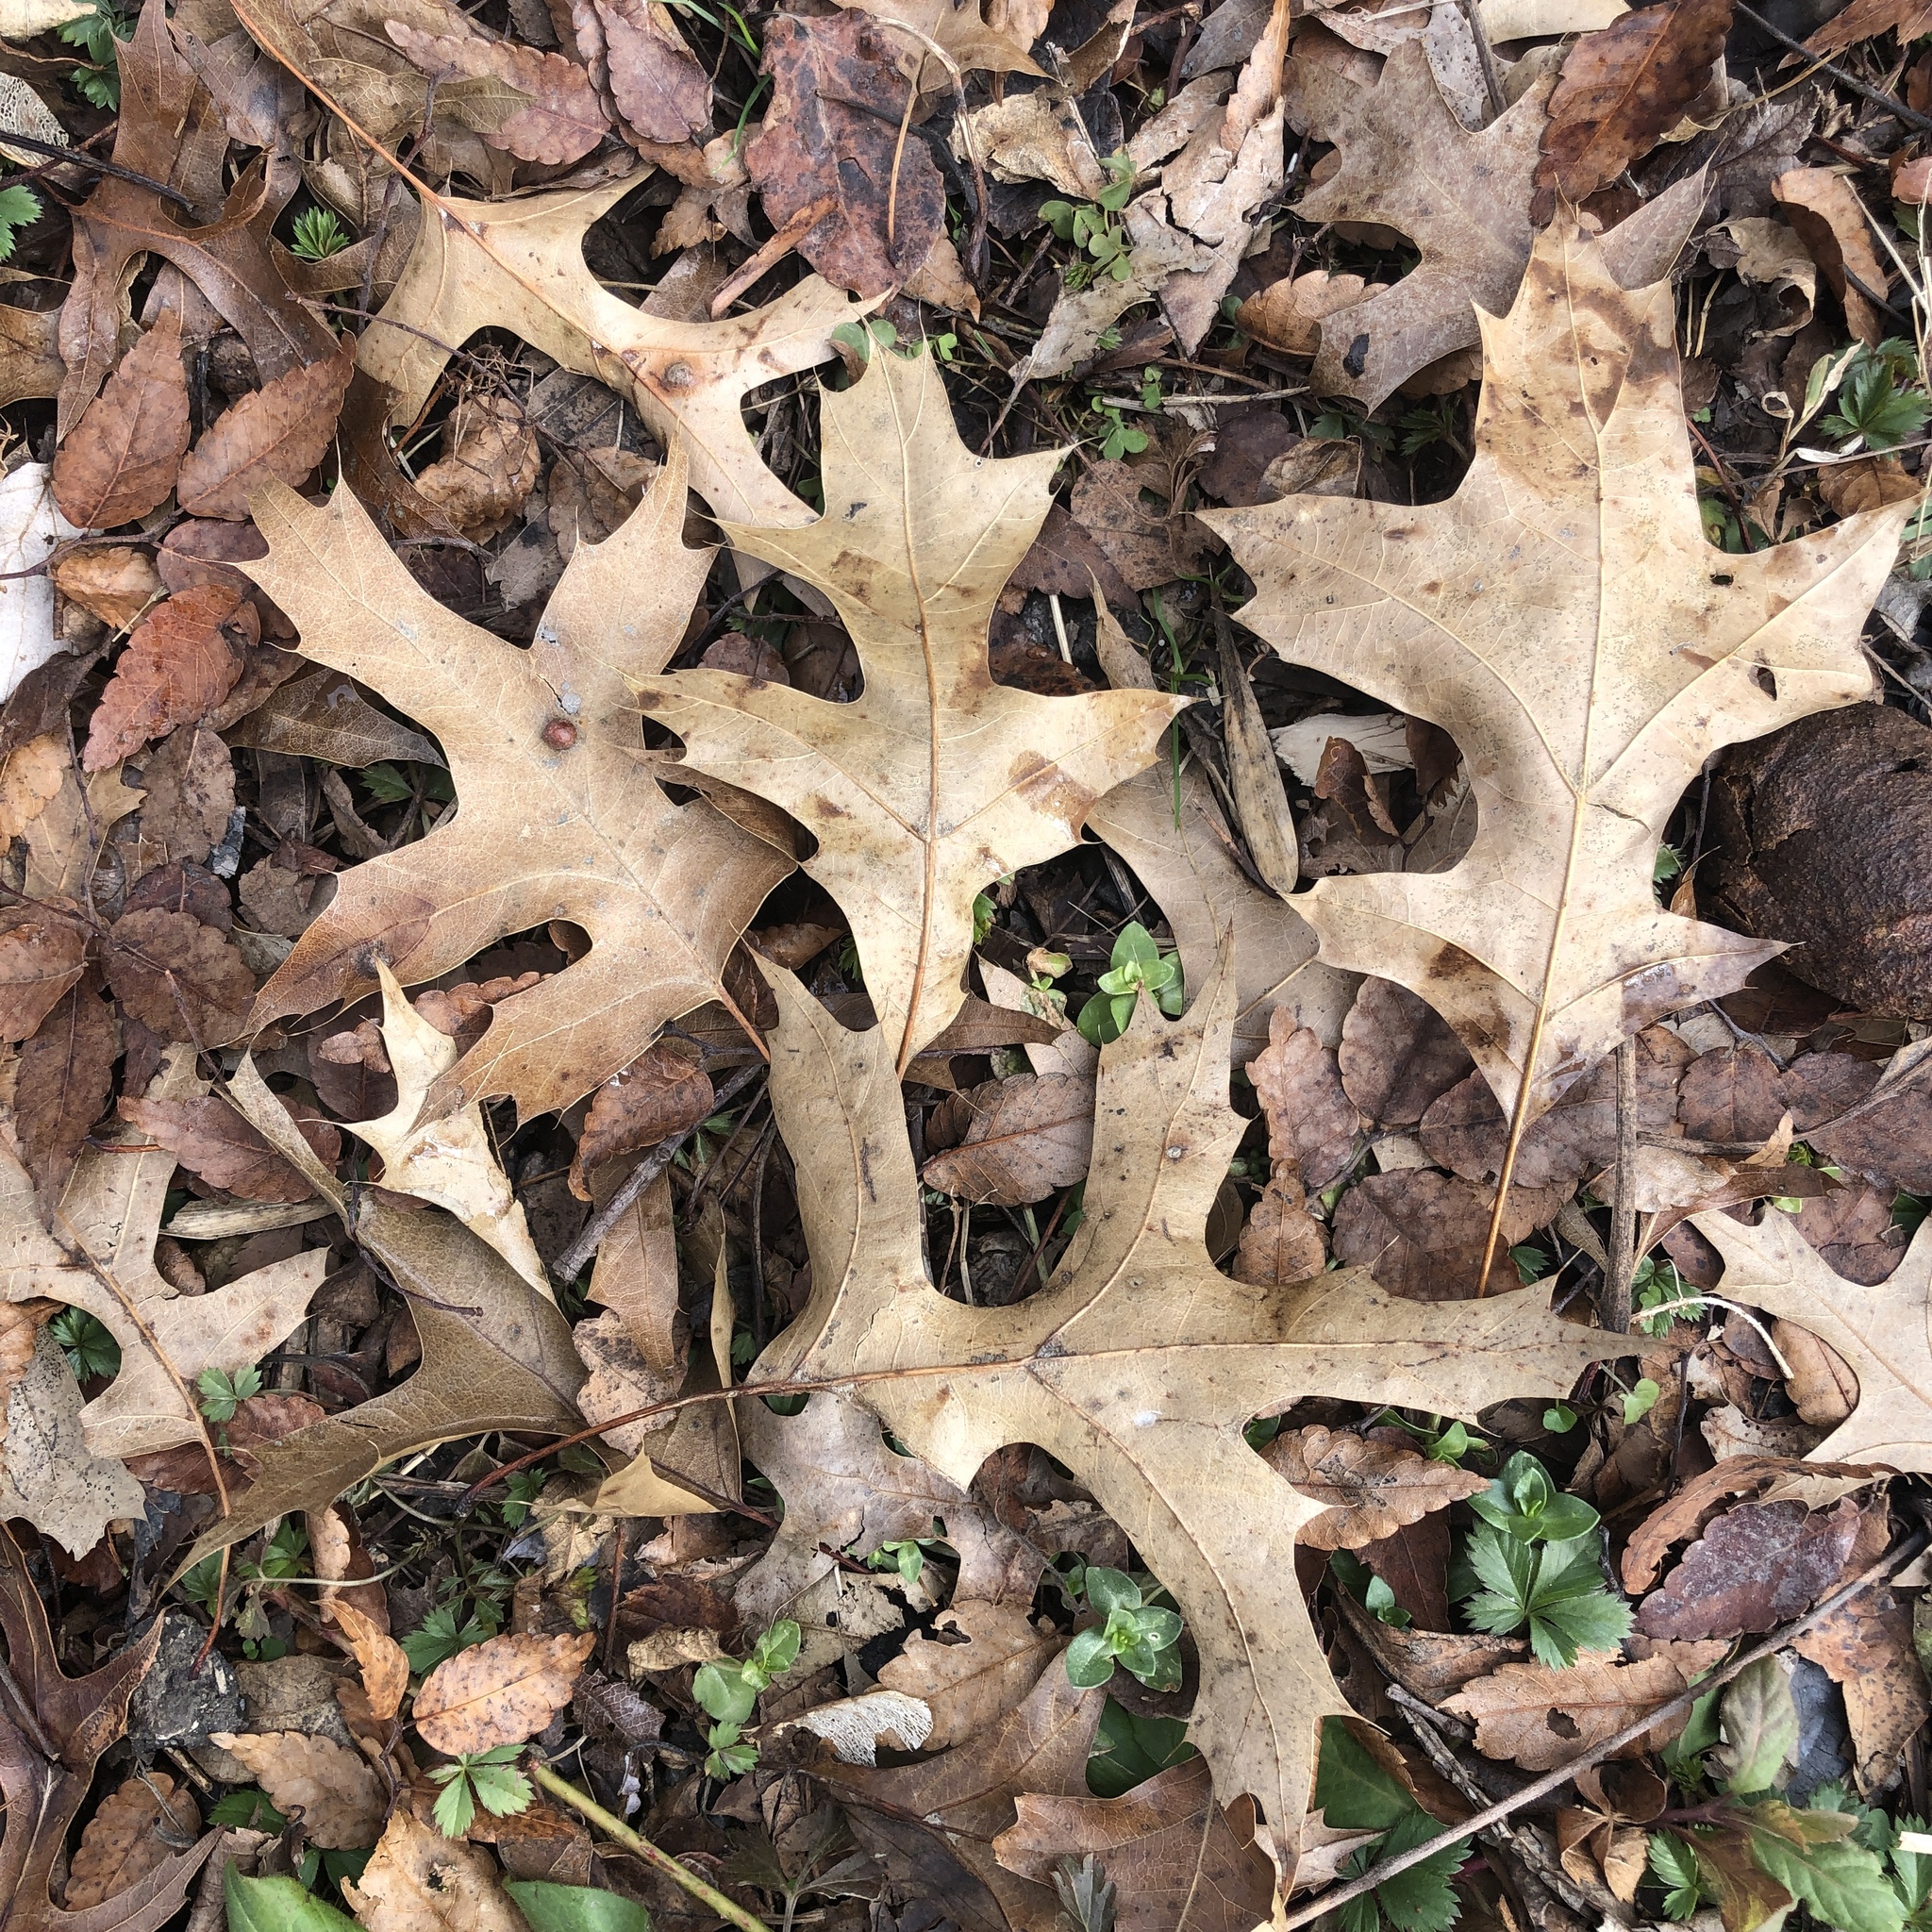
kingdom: Plantae
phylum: Tracheophyta
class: Magnoliopsida
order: Fagales
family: Fagaceae
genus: Quercus
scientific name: Quercus palustris
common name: Pin oak
